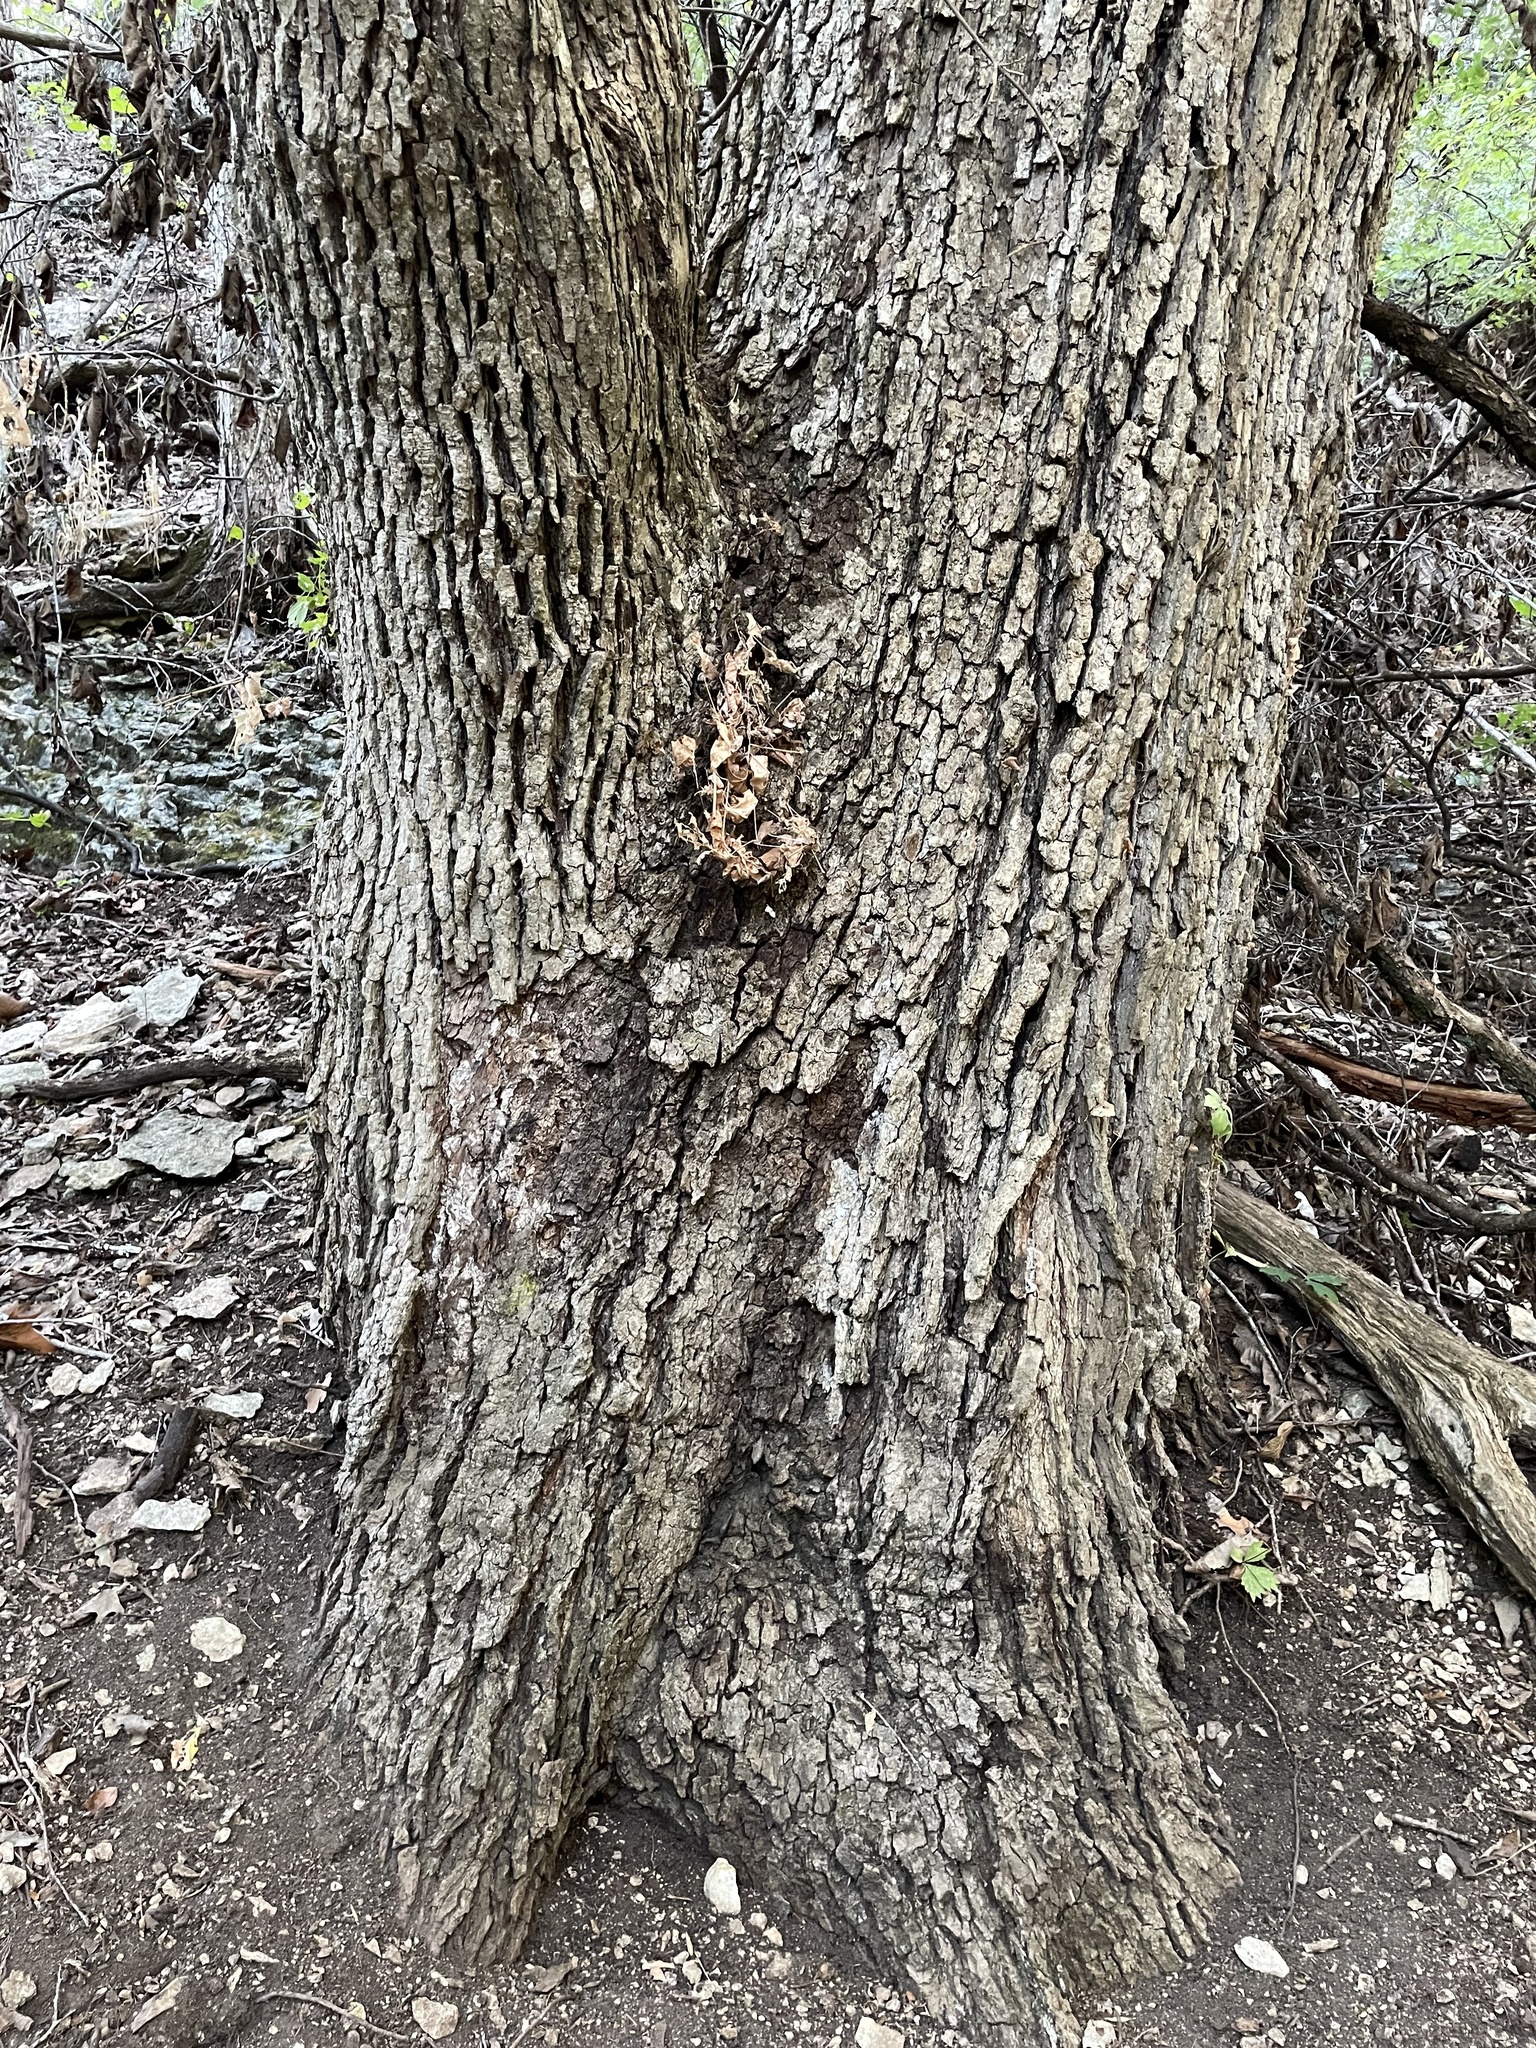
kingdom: Plantae
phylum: Tracheophyta
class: Magnoliopsida
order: Fagales
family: Fagaceae
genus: Quercus
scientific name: Quercus muehlenbergii
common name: Chinkapin oak
